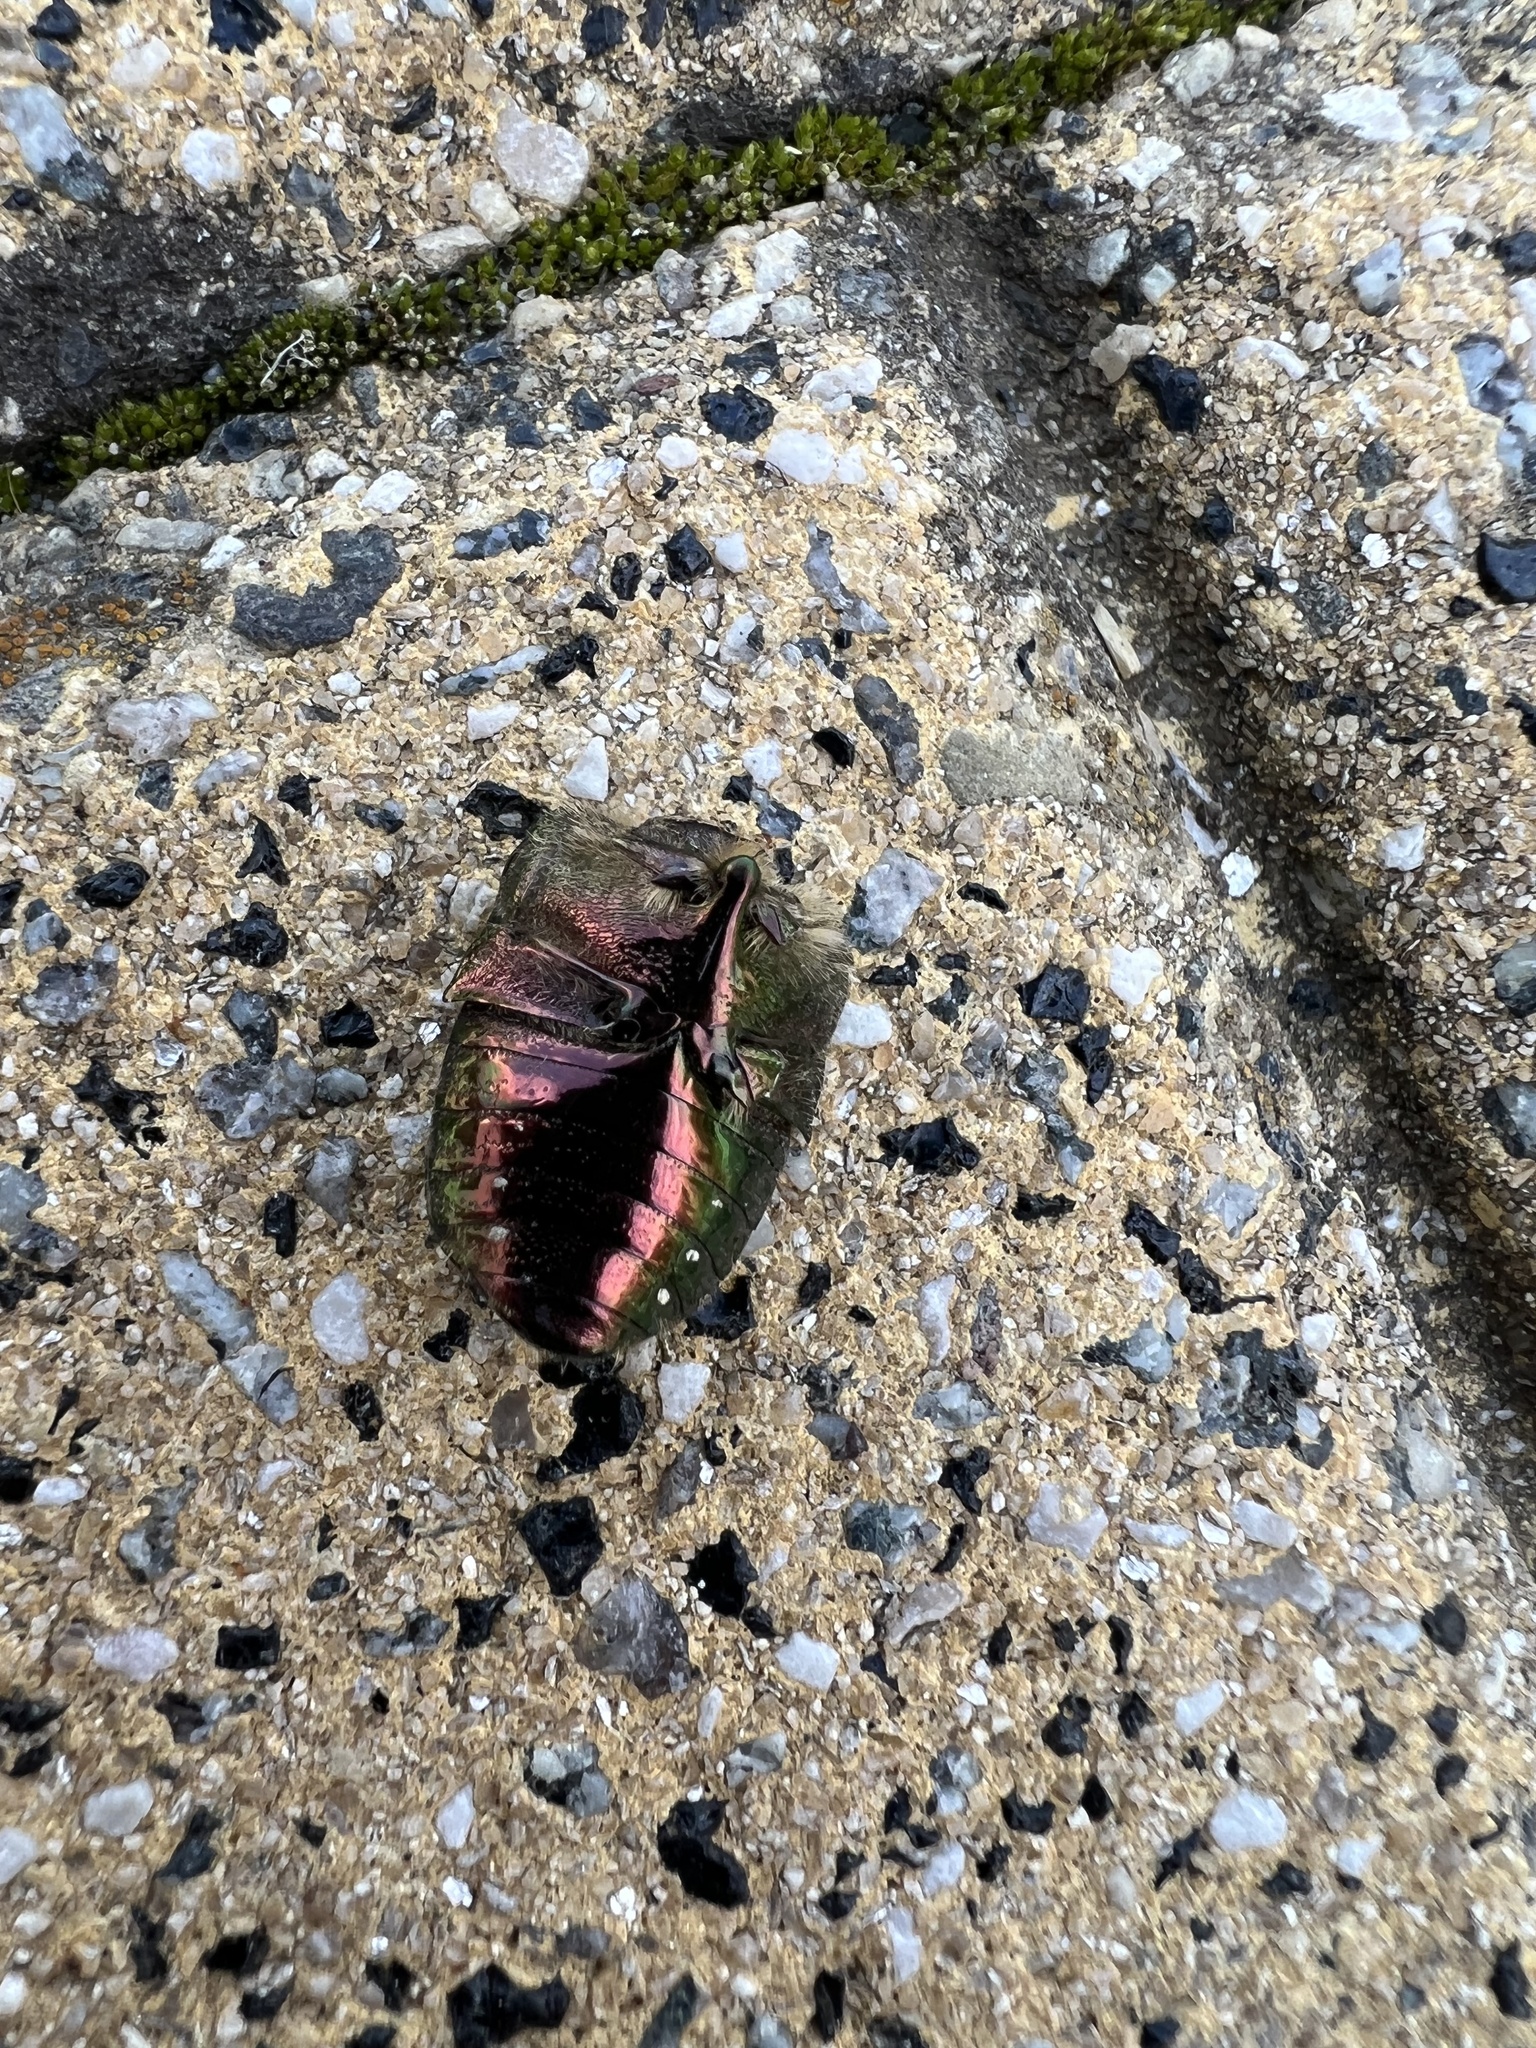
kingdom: Animalia
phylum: Arthropoda
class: Insecta
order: Coleoptera
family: Scarabaeidae
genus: Cetonia
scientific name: Cetonia aurata
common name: Rose chafer
